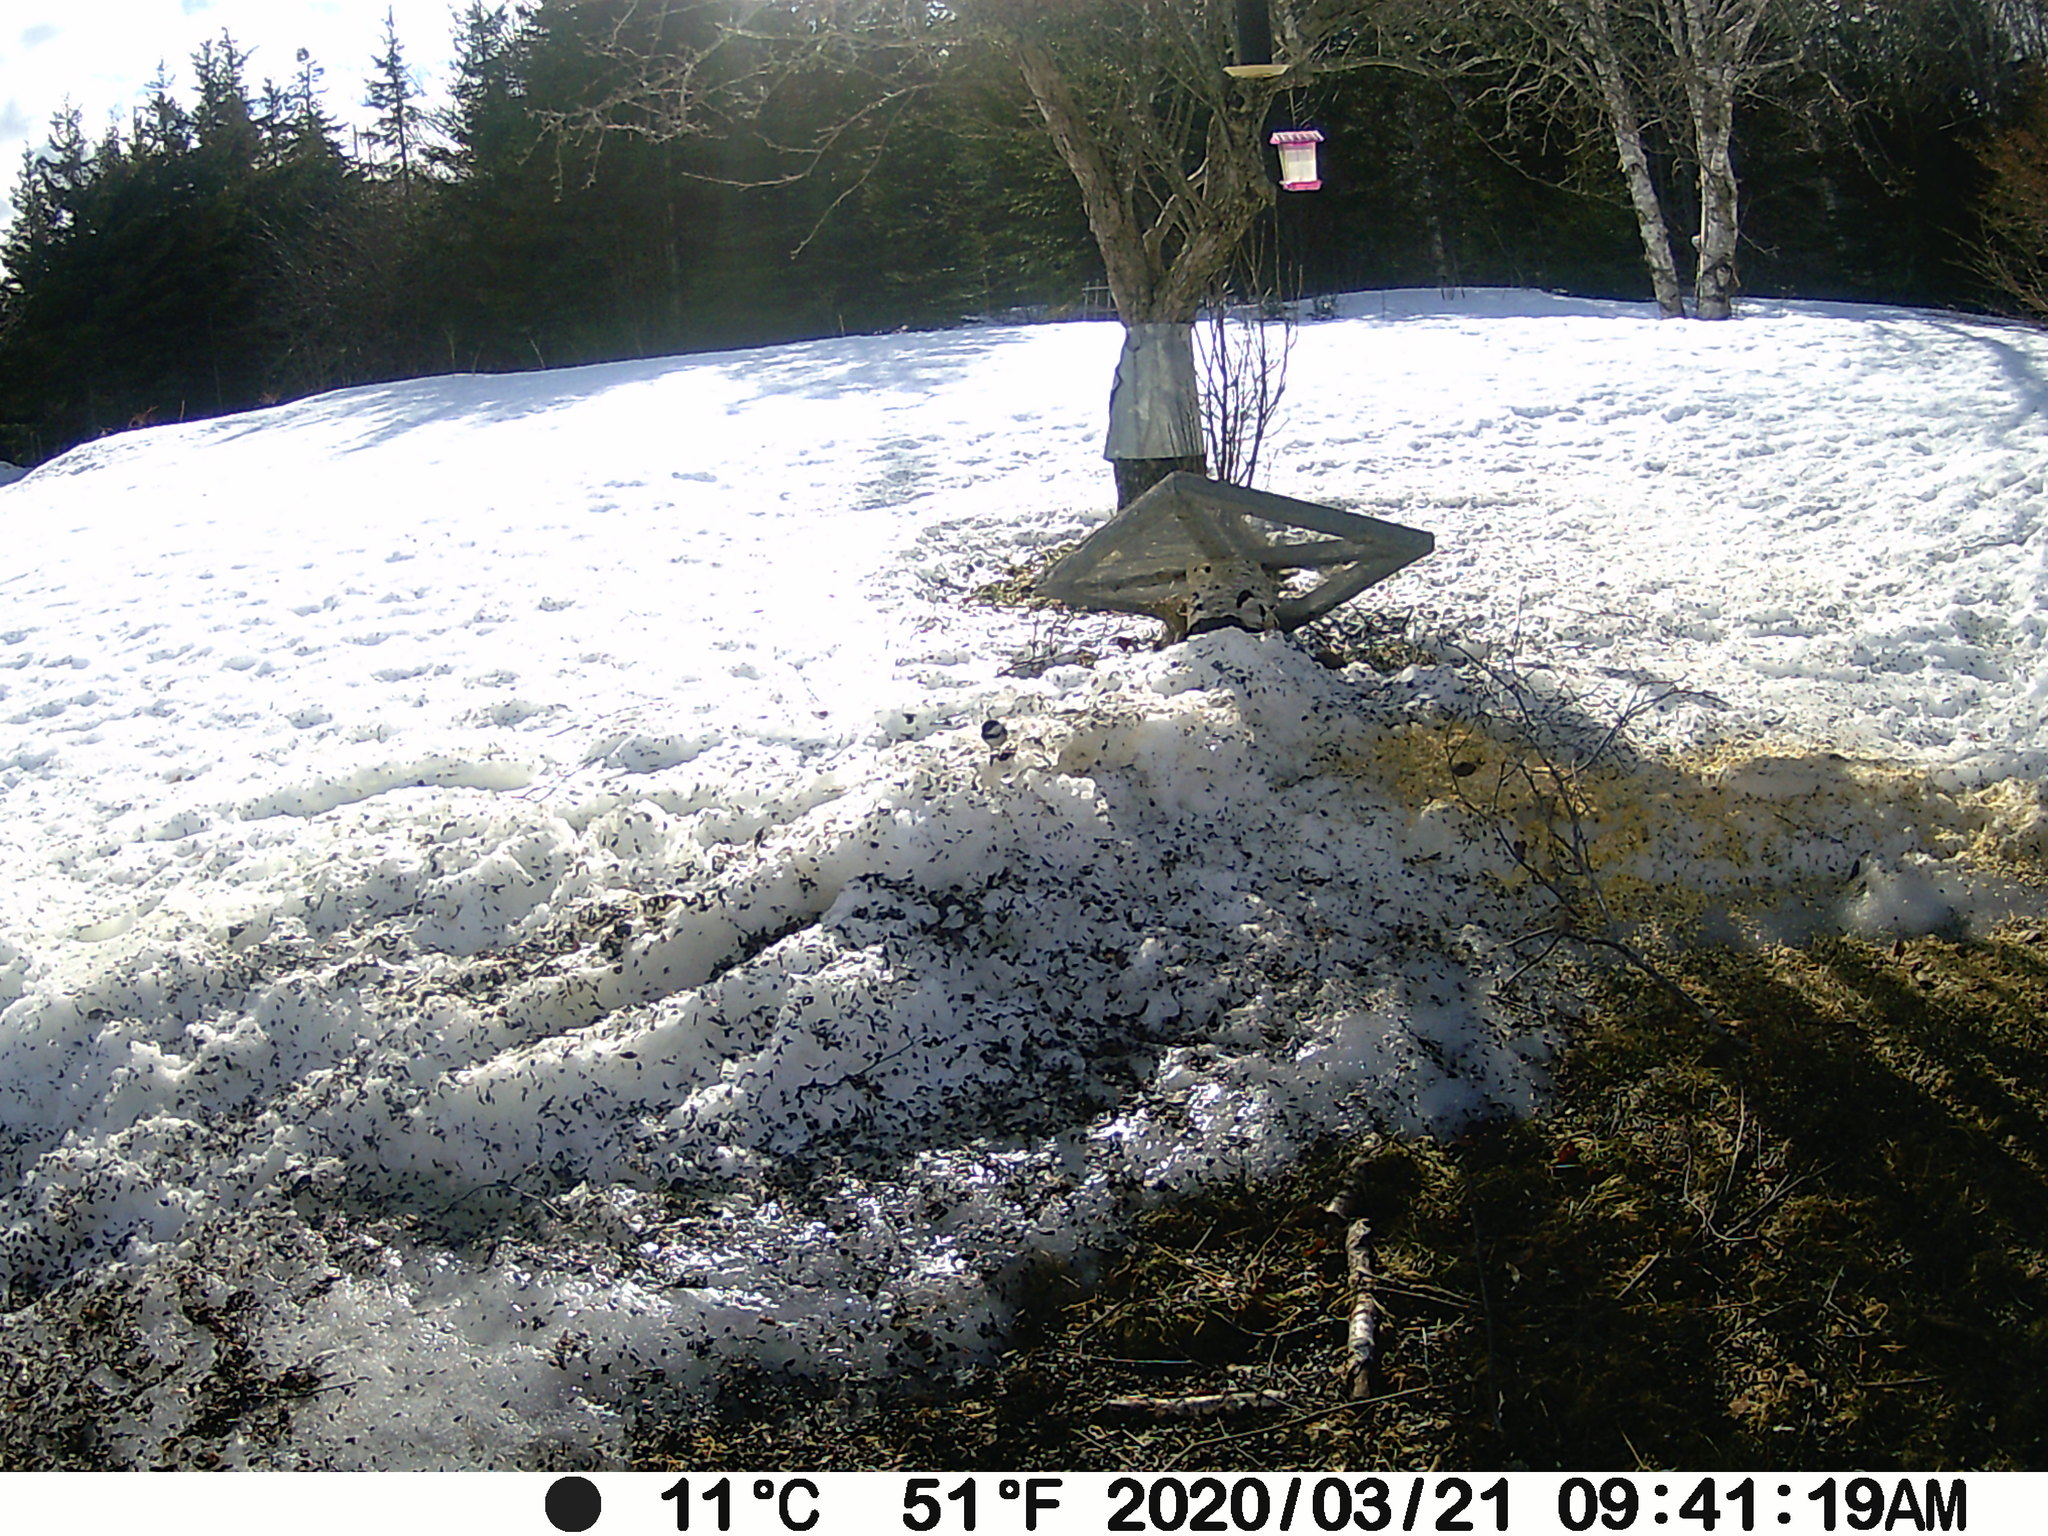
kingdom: Animalia
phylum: Chordata
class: Aves
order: Passeriformes
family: Paridae
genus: Poecile
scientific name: Poecile atricapillus
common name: Black-capped chickadee
